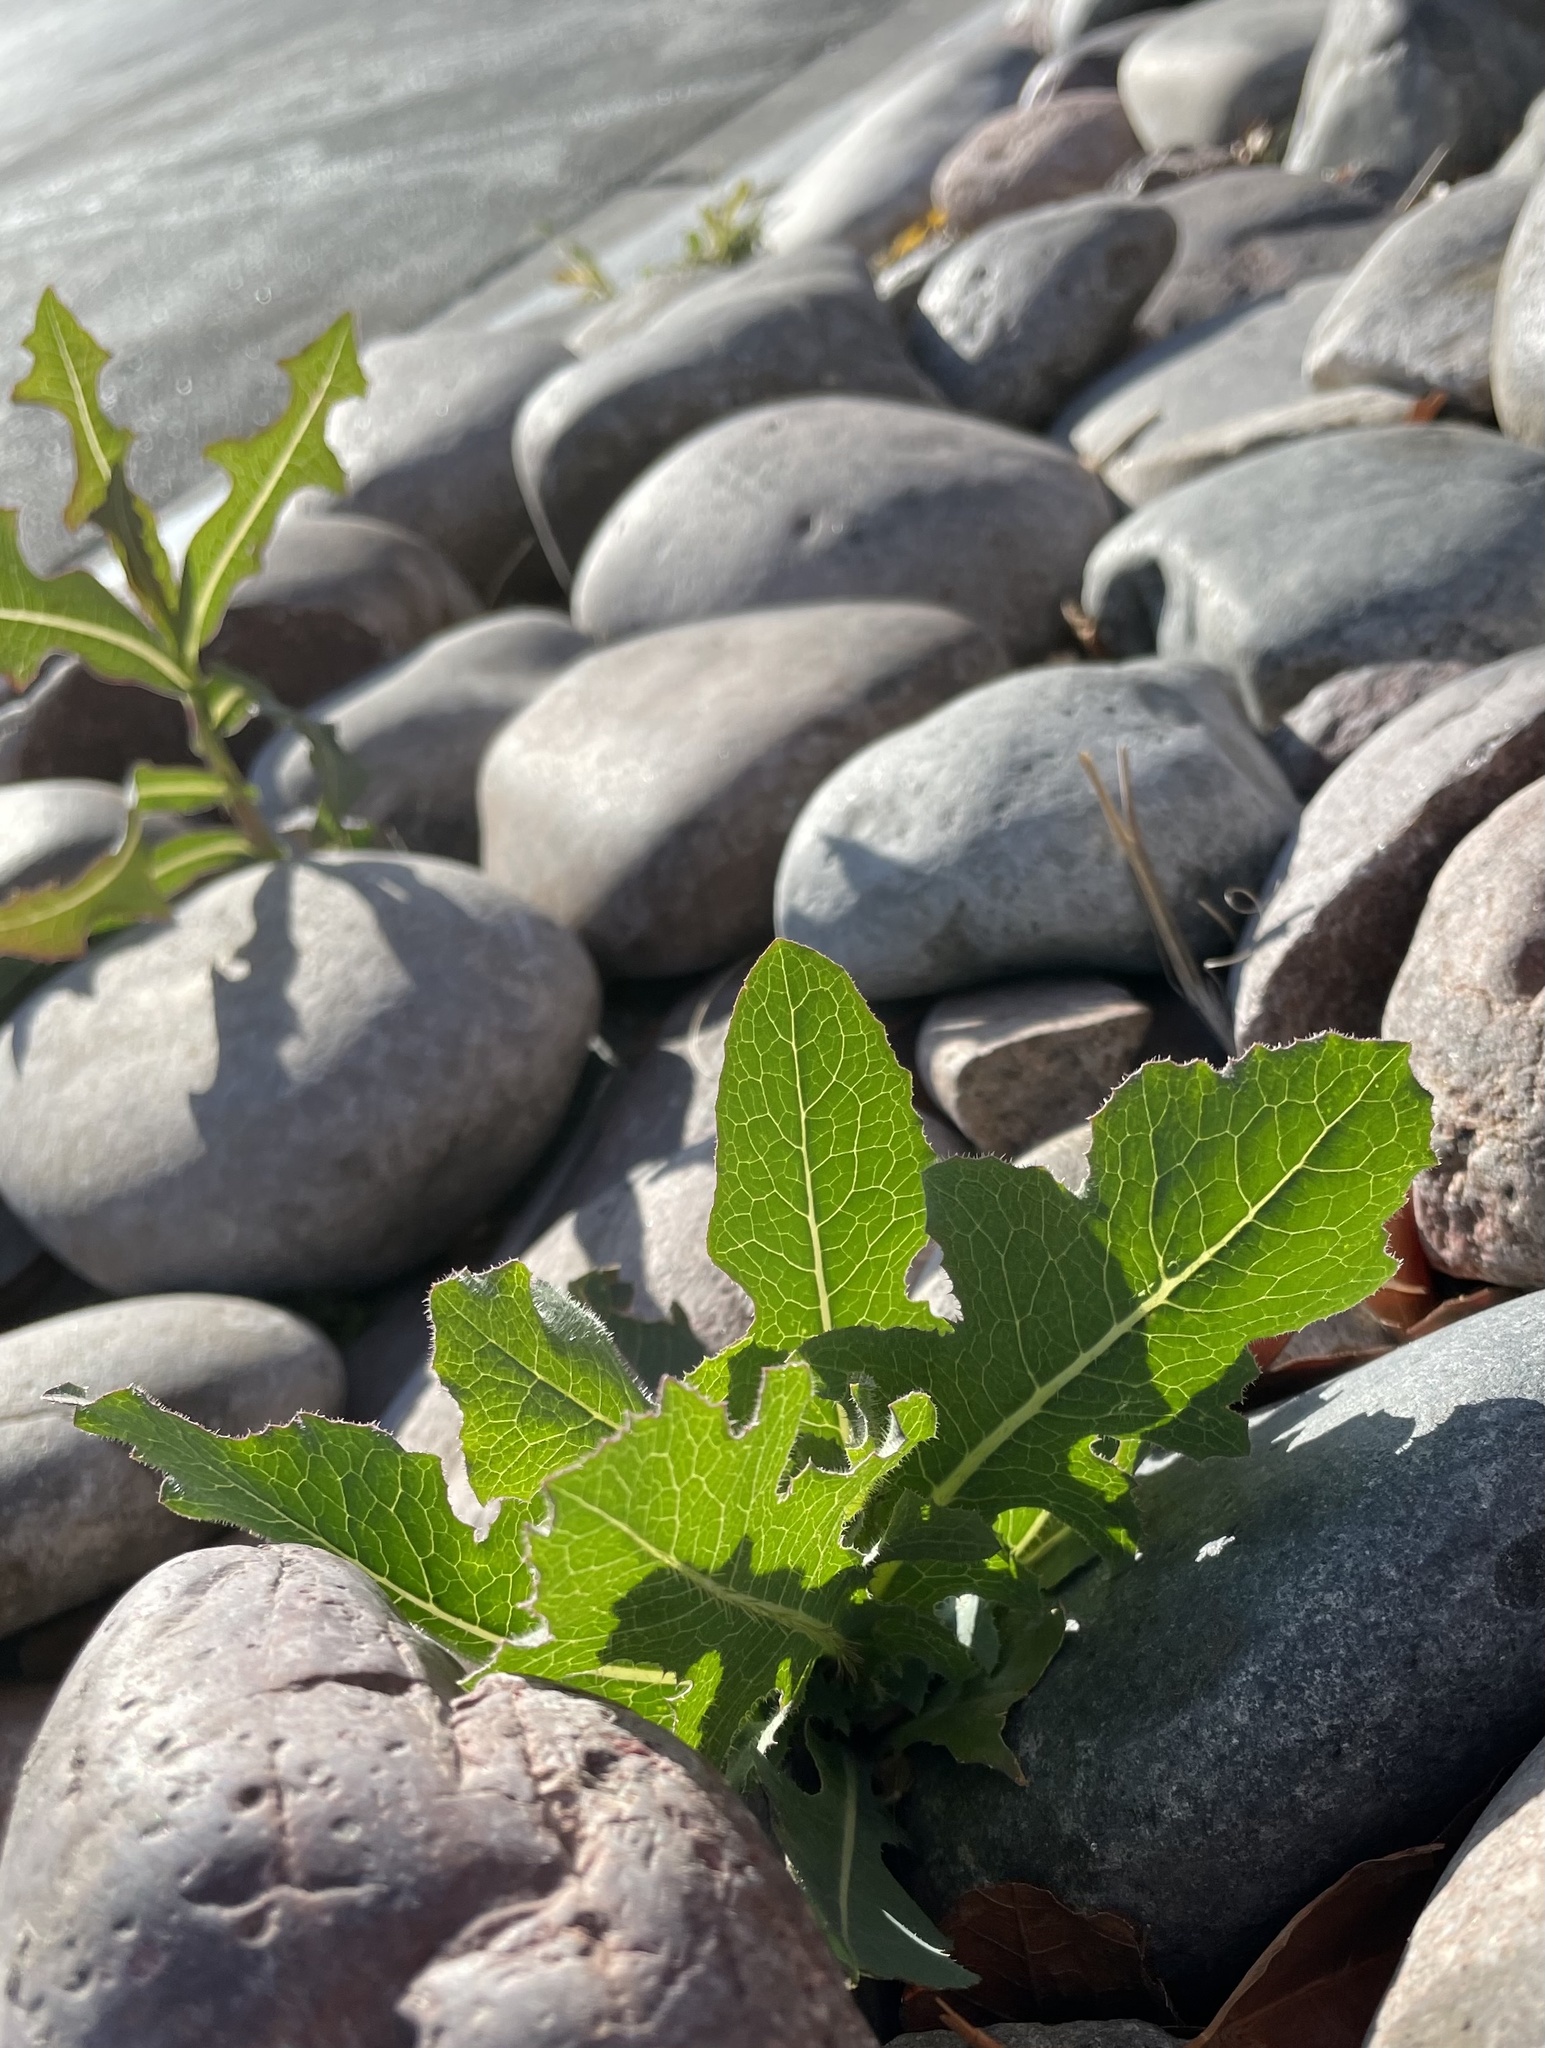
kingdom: Plantae
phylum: Tracheophyta
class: Magnoliopsida
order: Asterales
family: Asteraceae
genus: Lactuca
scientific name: Lactuca serriola
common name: Prickly lettuce
